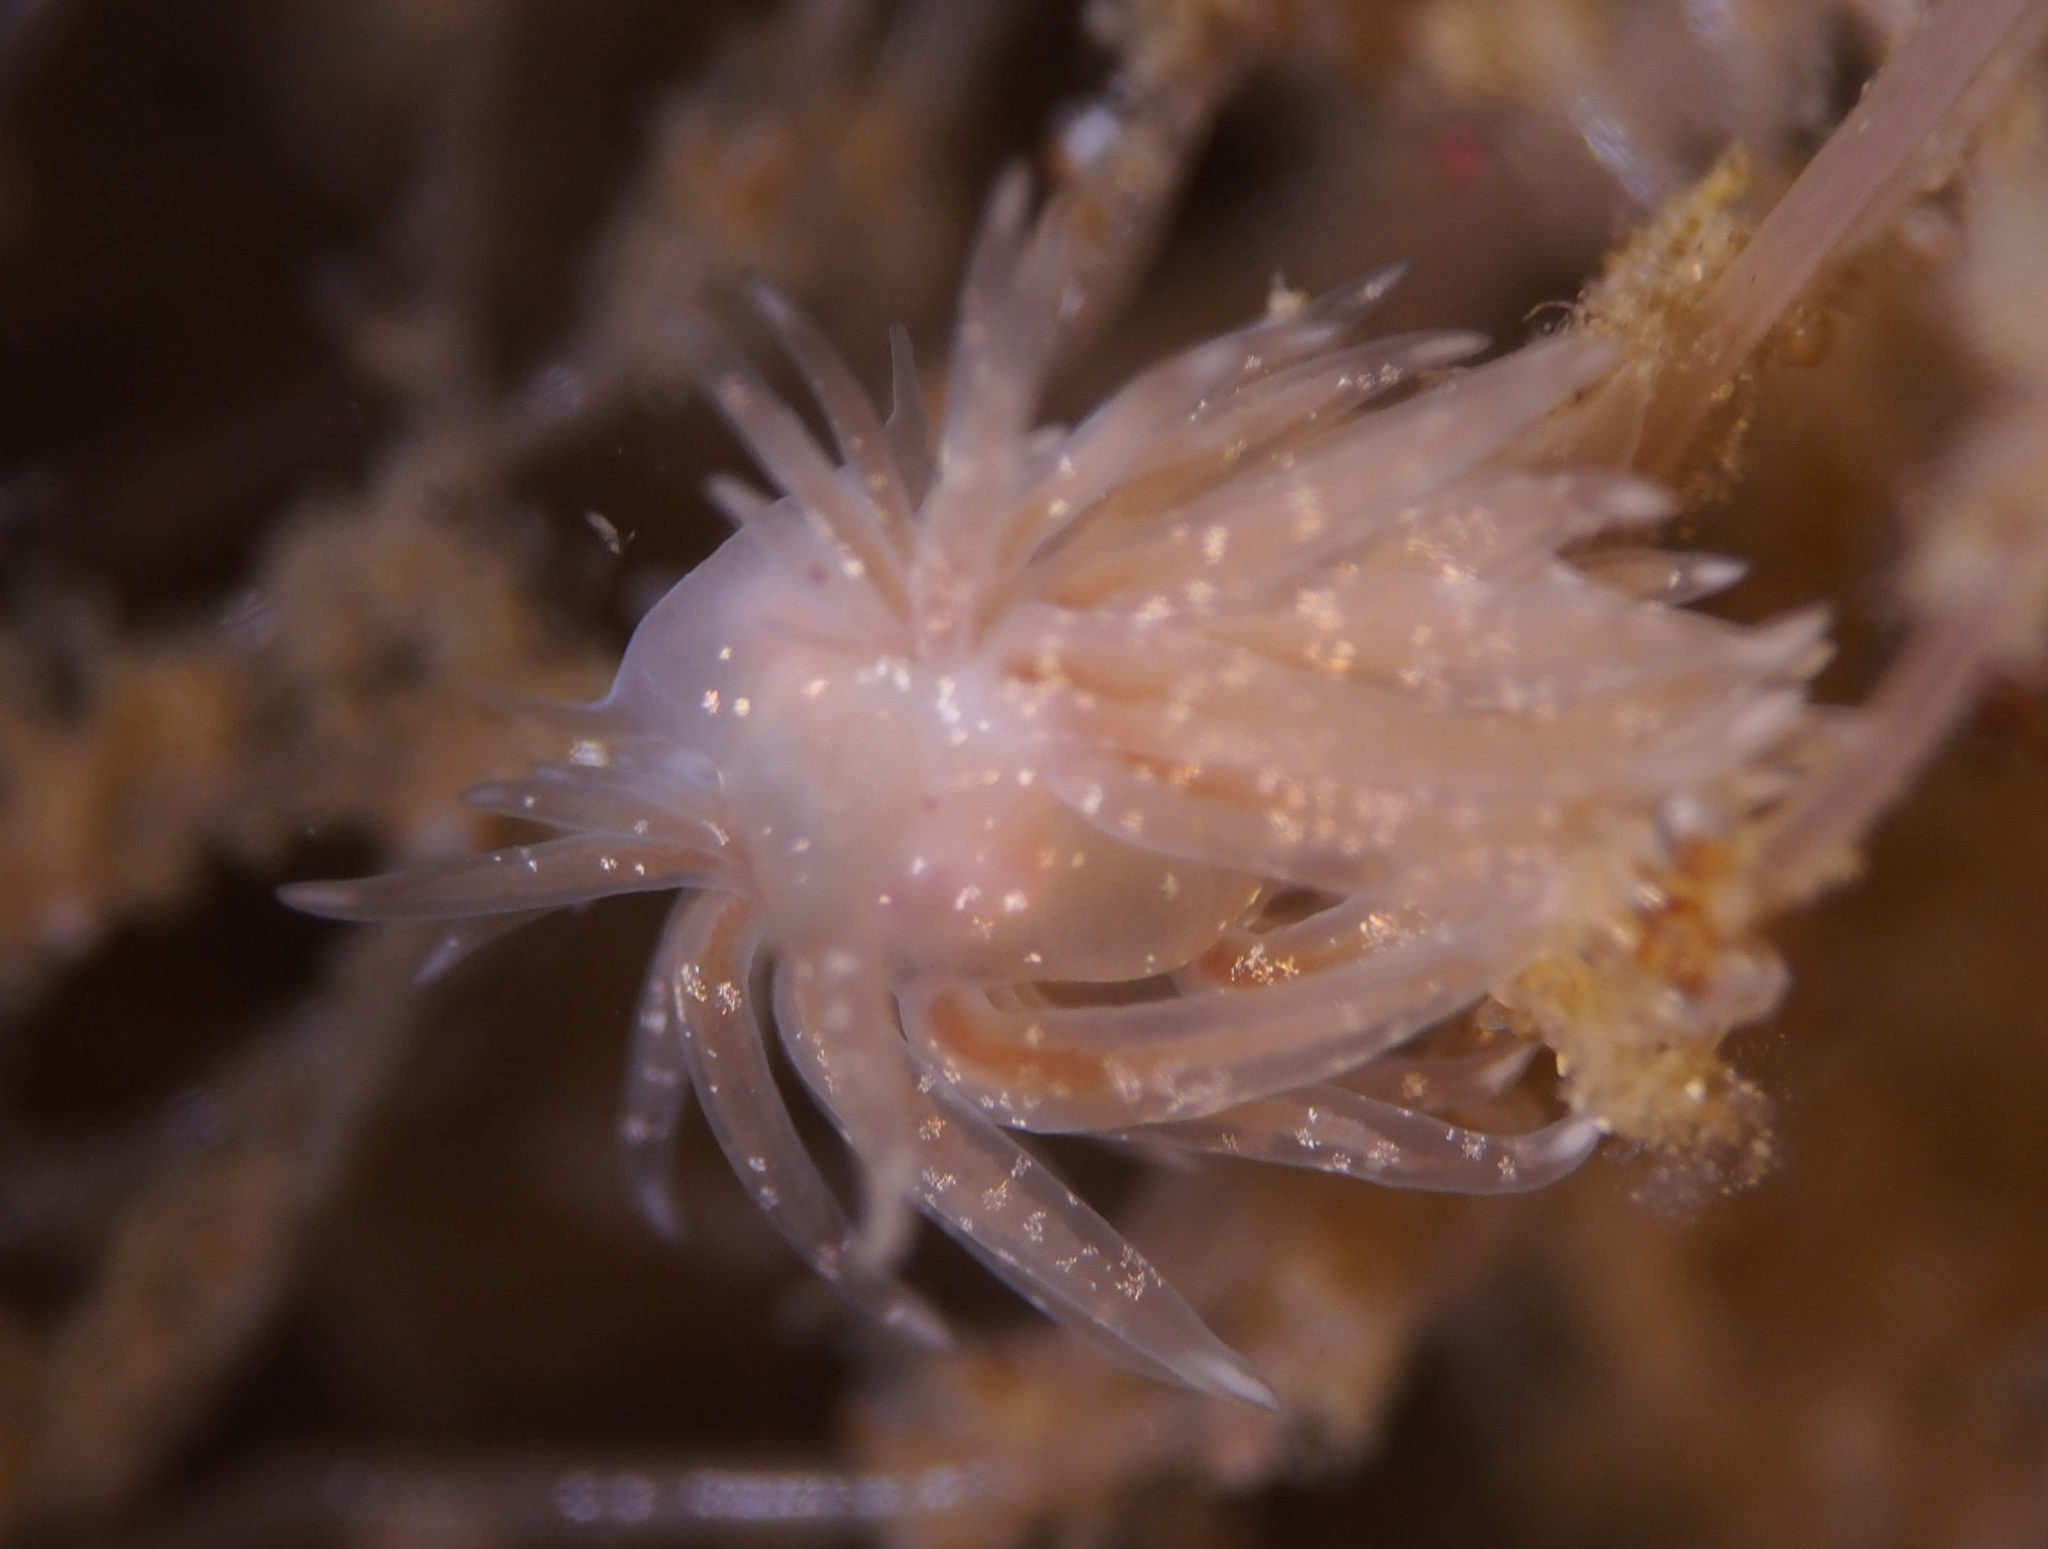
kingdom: Animalia
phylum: Mollusca
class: Gastropoda
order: Nudibranchia
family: Cumanotidae
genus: Cumanotus
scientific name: Cumanotus beaumonti
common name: Polyp aeolis
